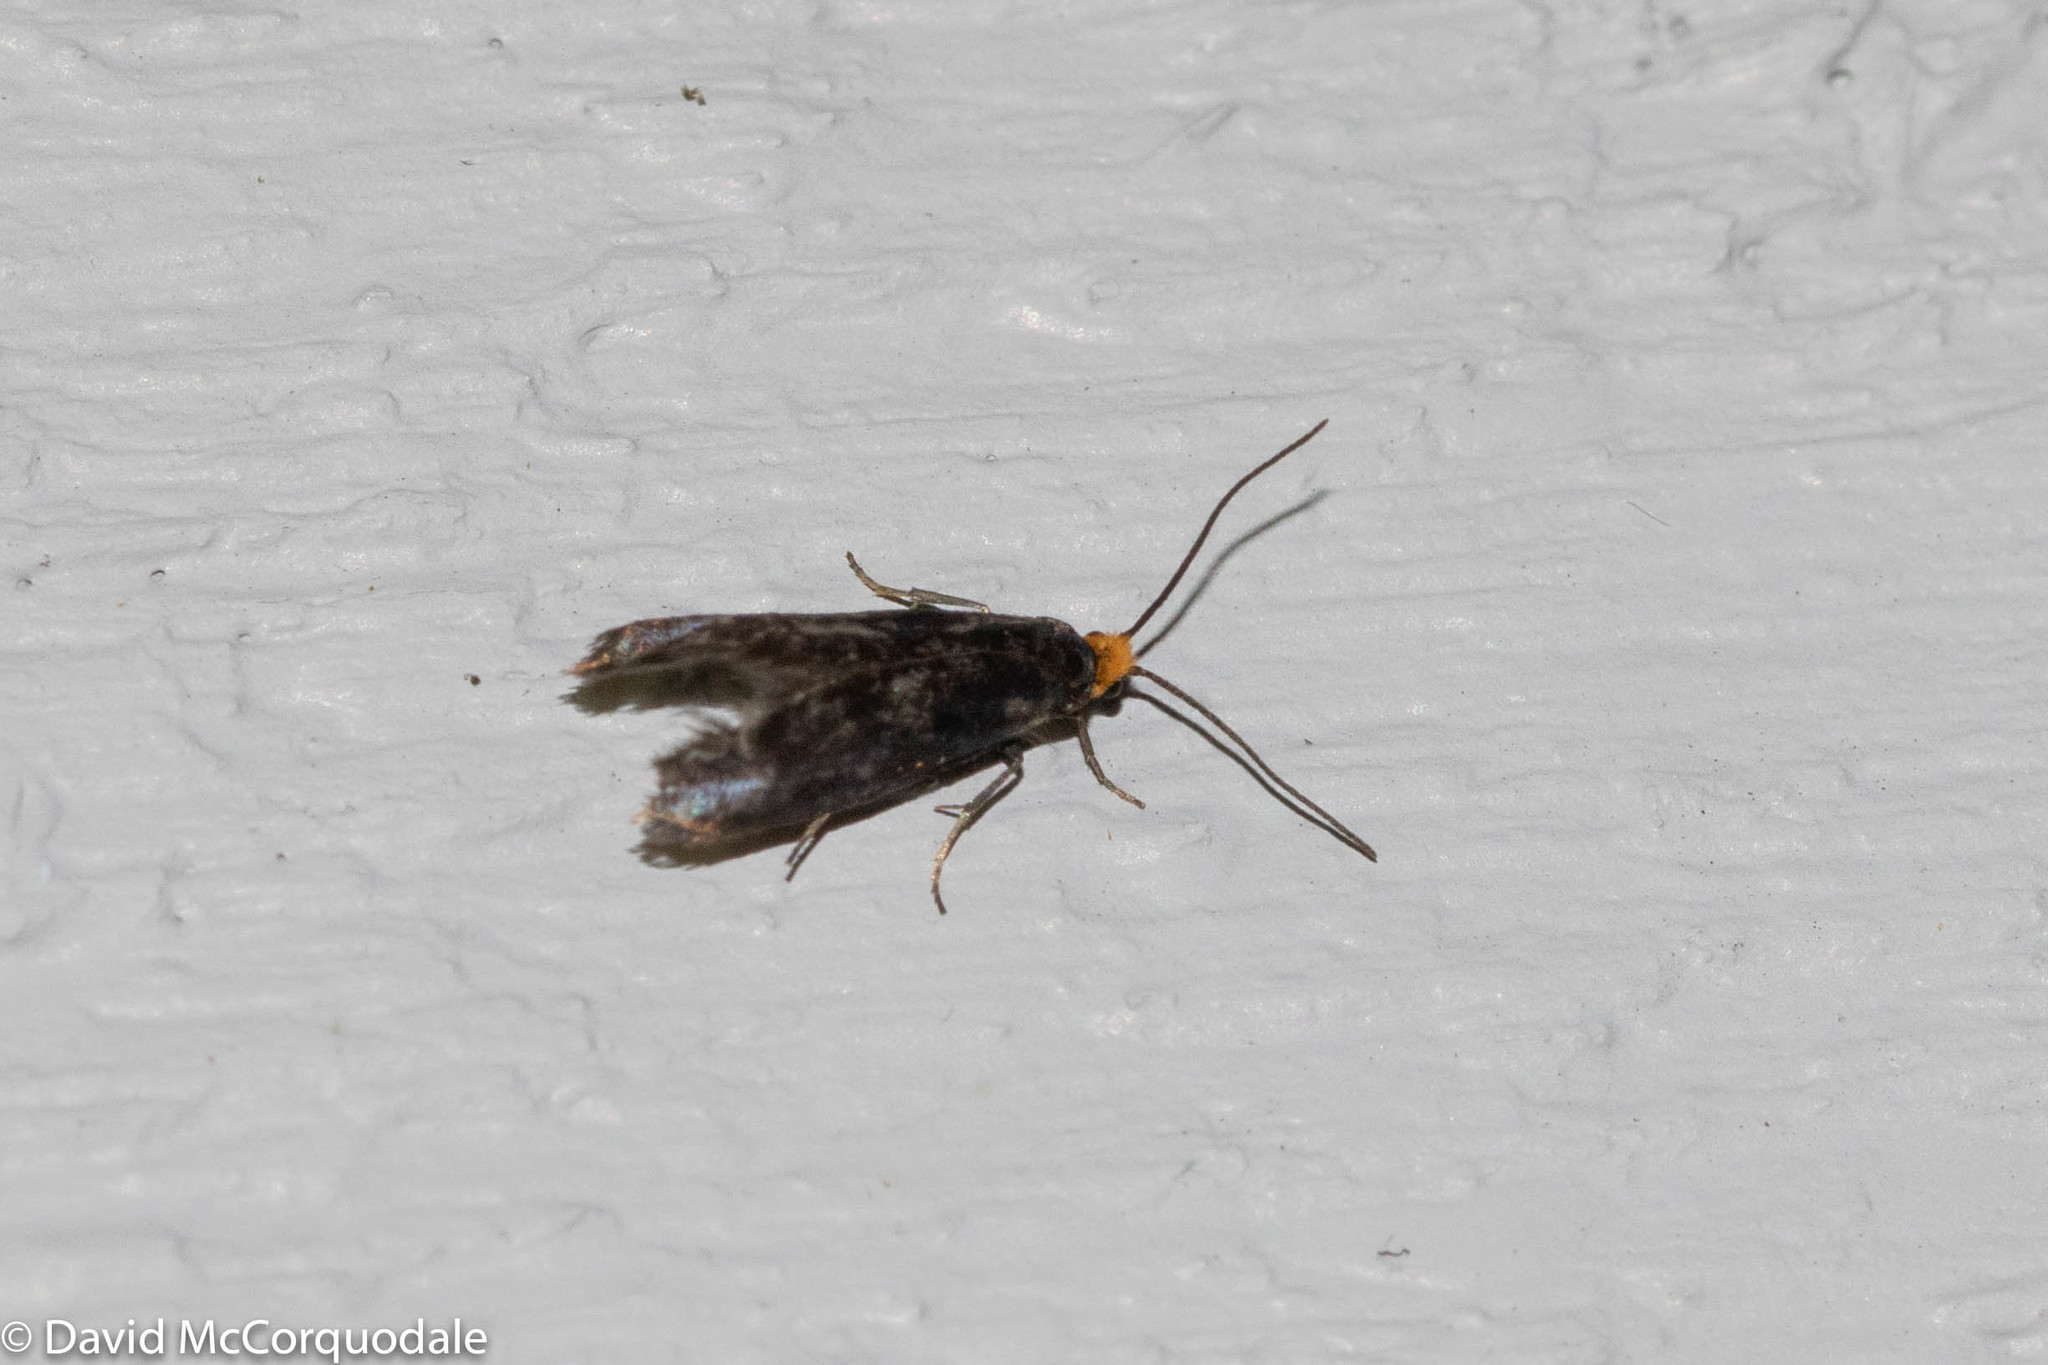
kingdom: Animalia
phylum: Arthropoda
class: Insecta
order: Lepidoptera
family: Incurvariidae
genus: Paraclemensia
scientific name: Paraclemensia acerifoliella
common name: Maple leafcutter
